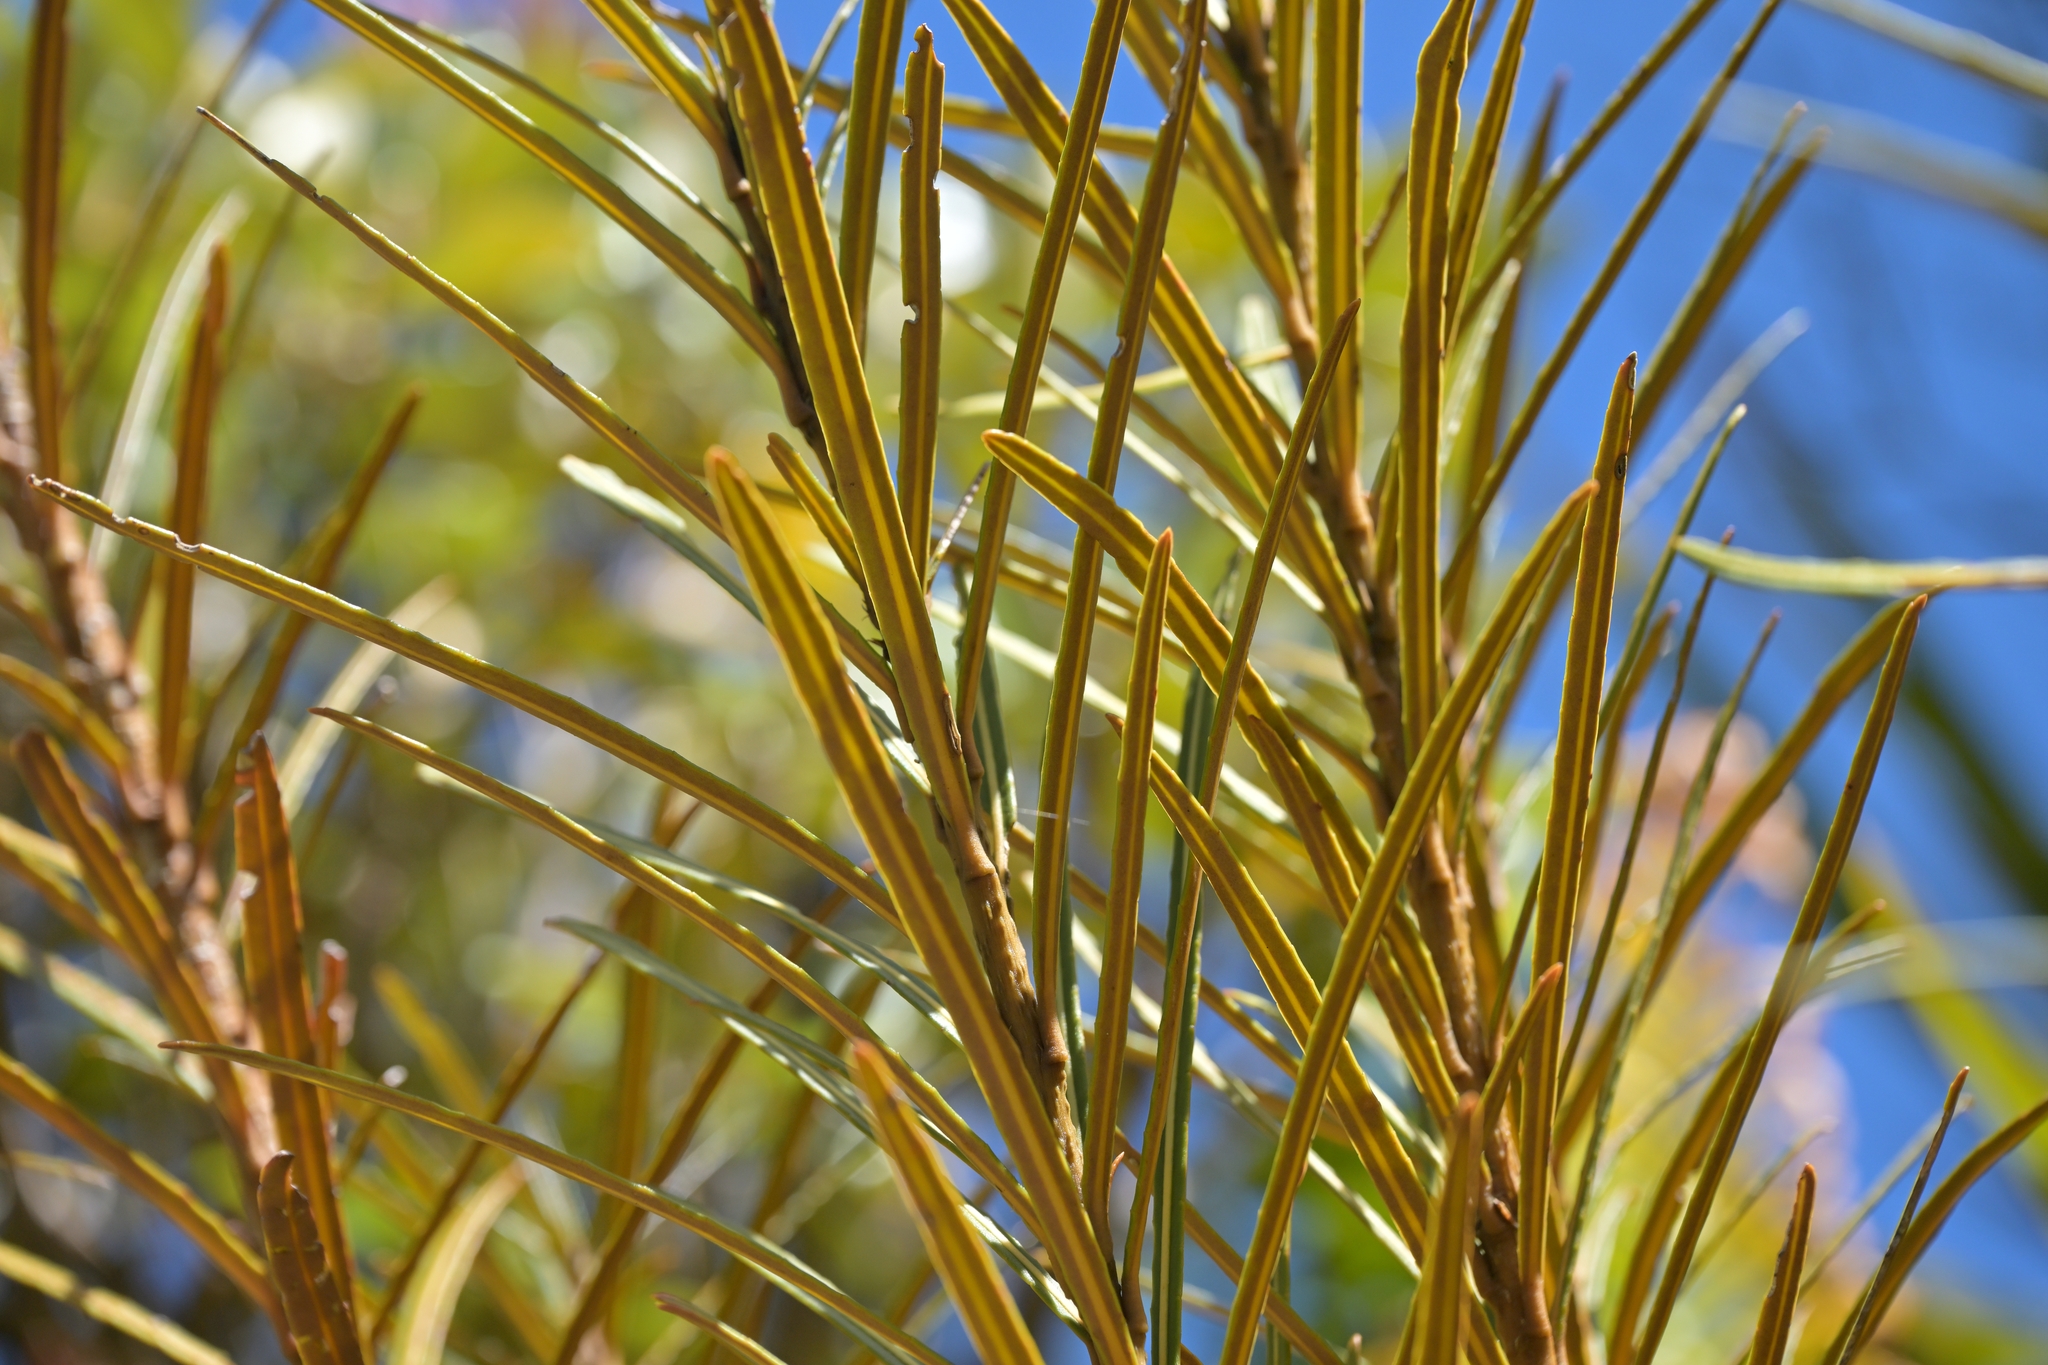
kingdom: Plantae
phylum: Tracheophyta
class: Magnoliopsida
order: Apiales
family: Araliaceae
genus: Pseudopanax
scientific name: Pseudopanax linearis
